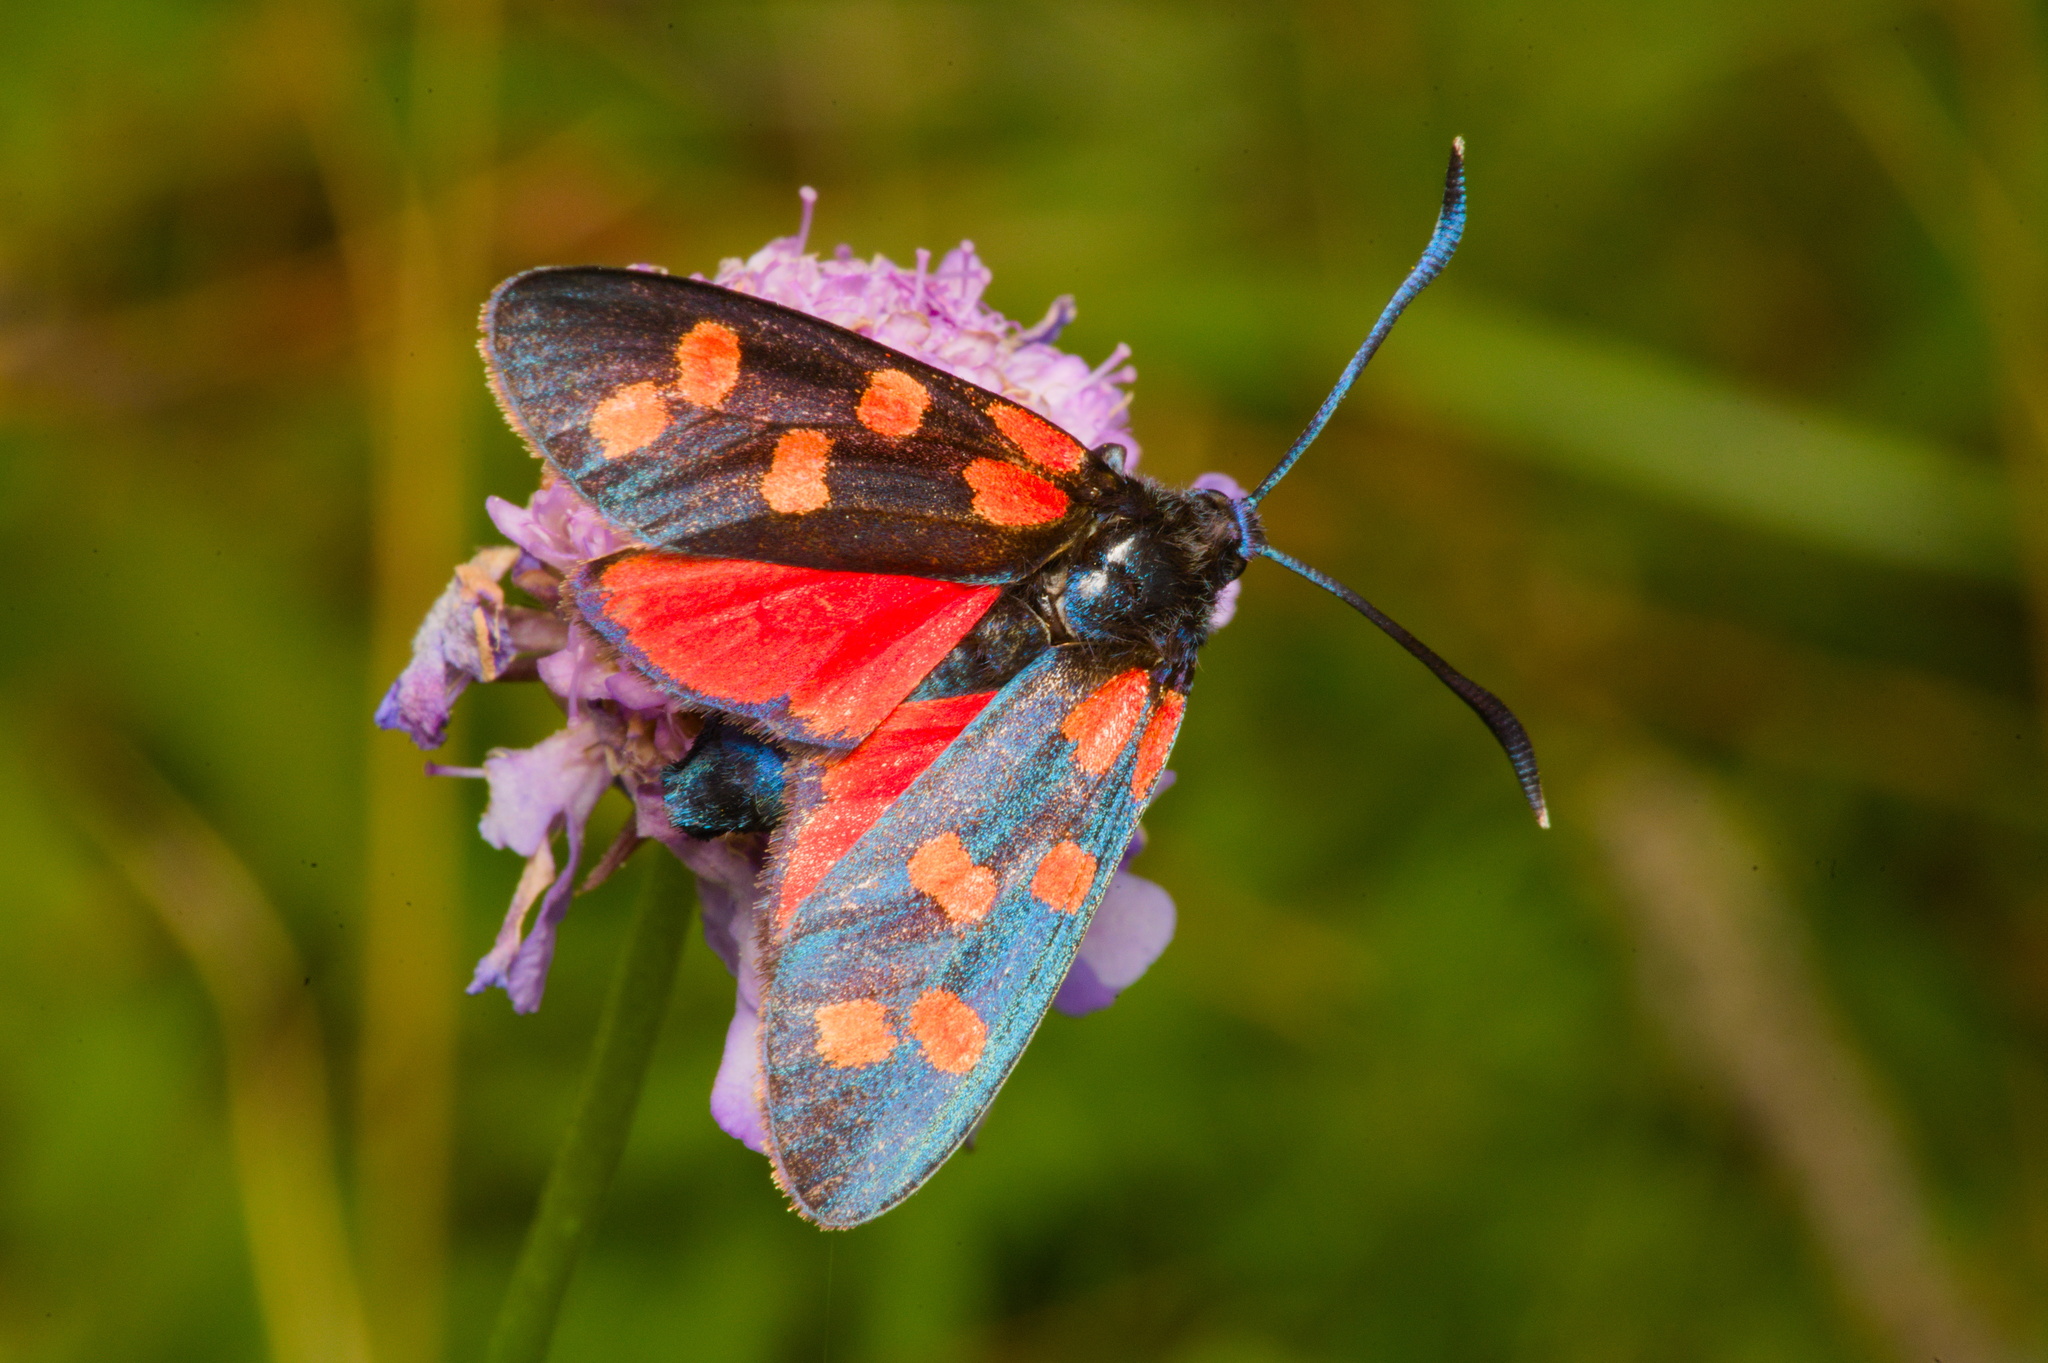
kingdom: Animalia
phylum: Arthropoda
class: Insecta
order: Lepidoptera
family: Zygaenidae
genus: Zygaena
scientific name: Zygaena transalpina
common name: Southern six spot burnet
